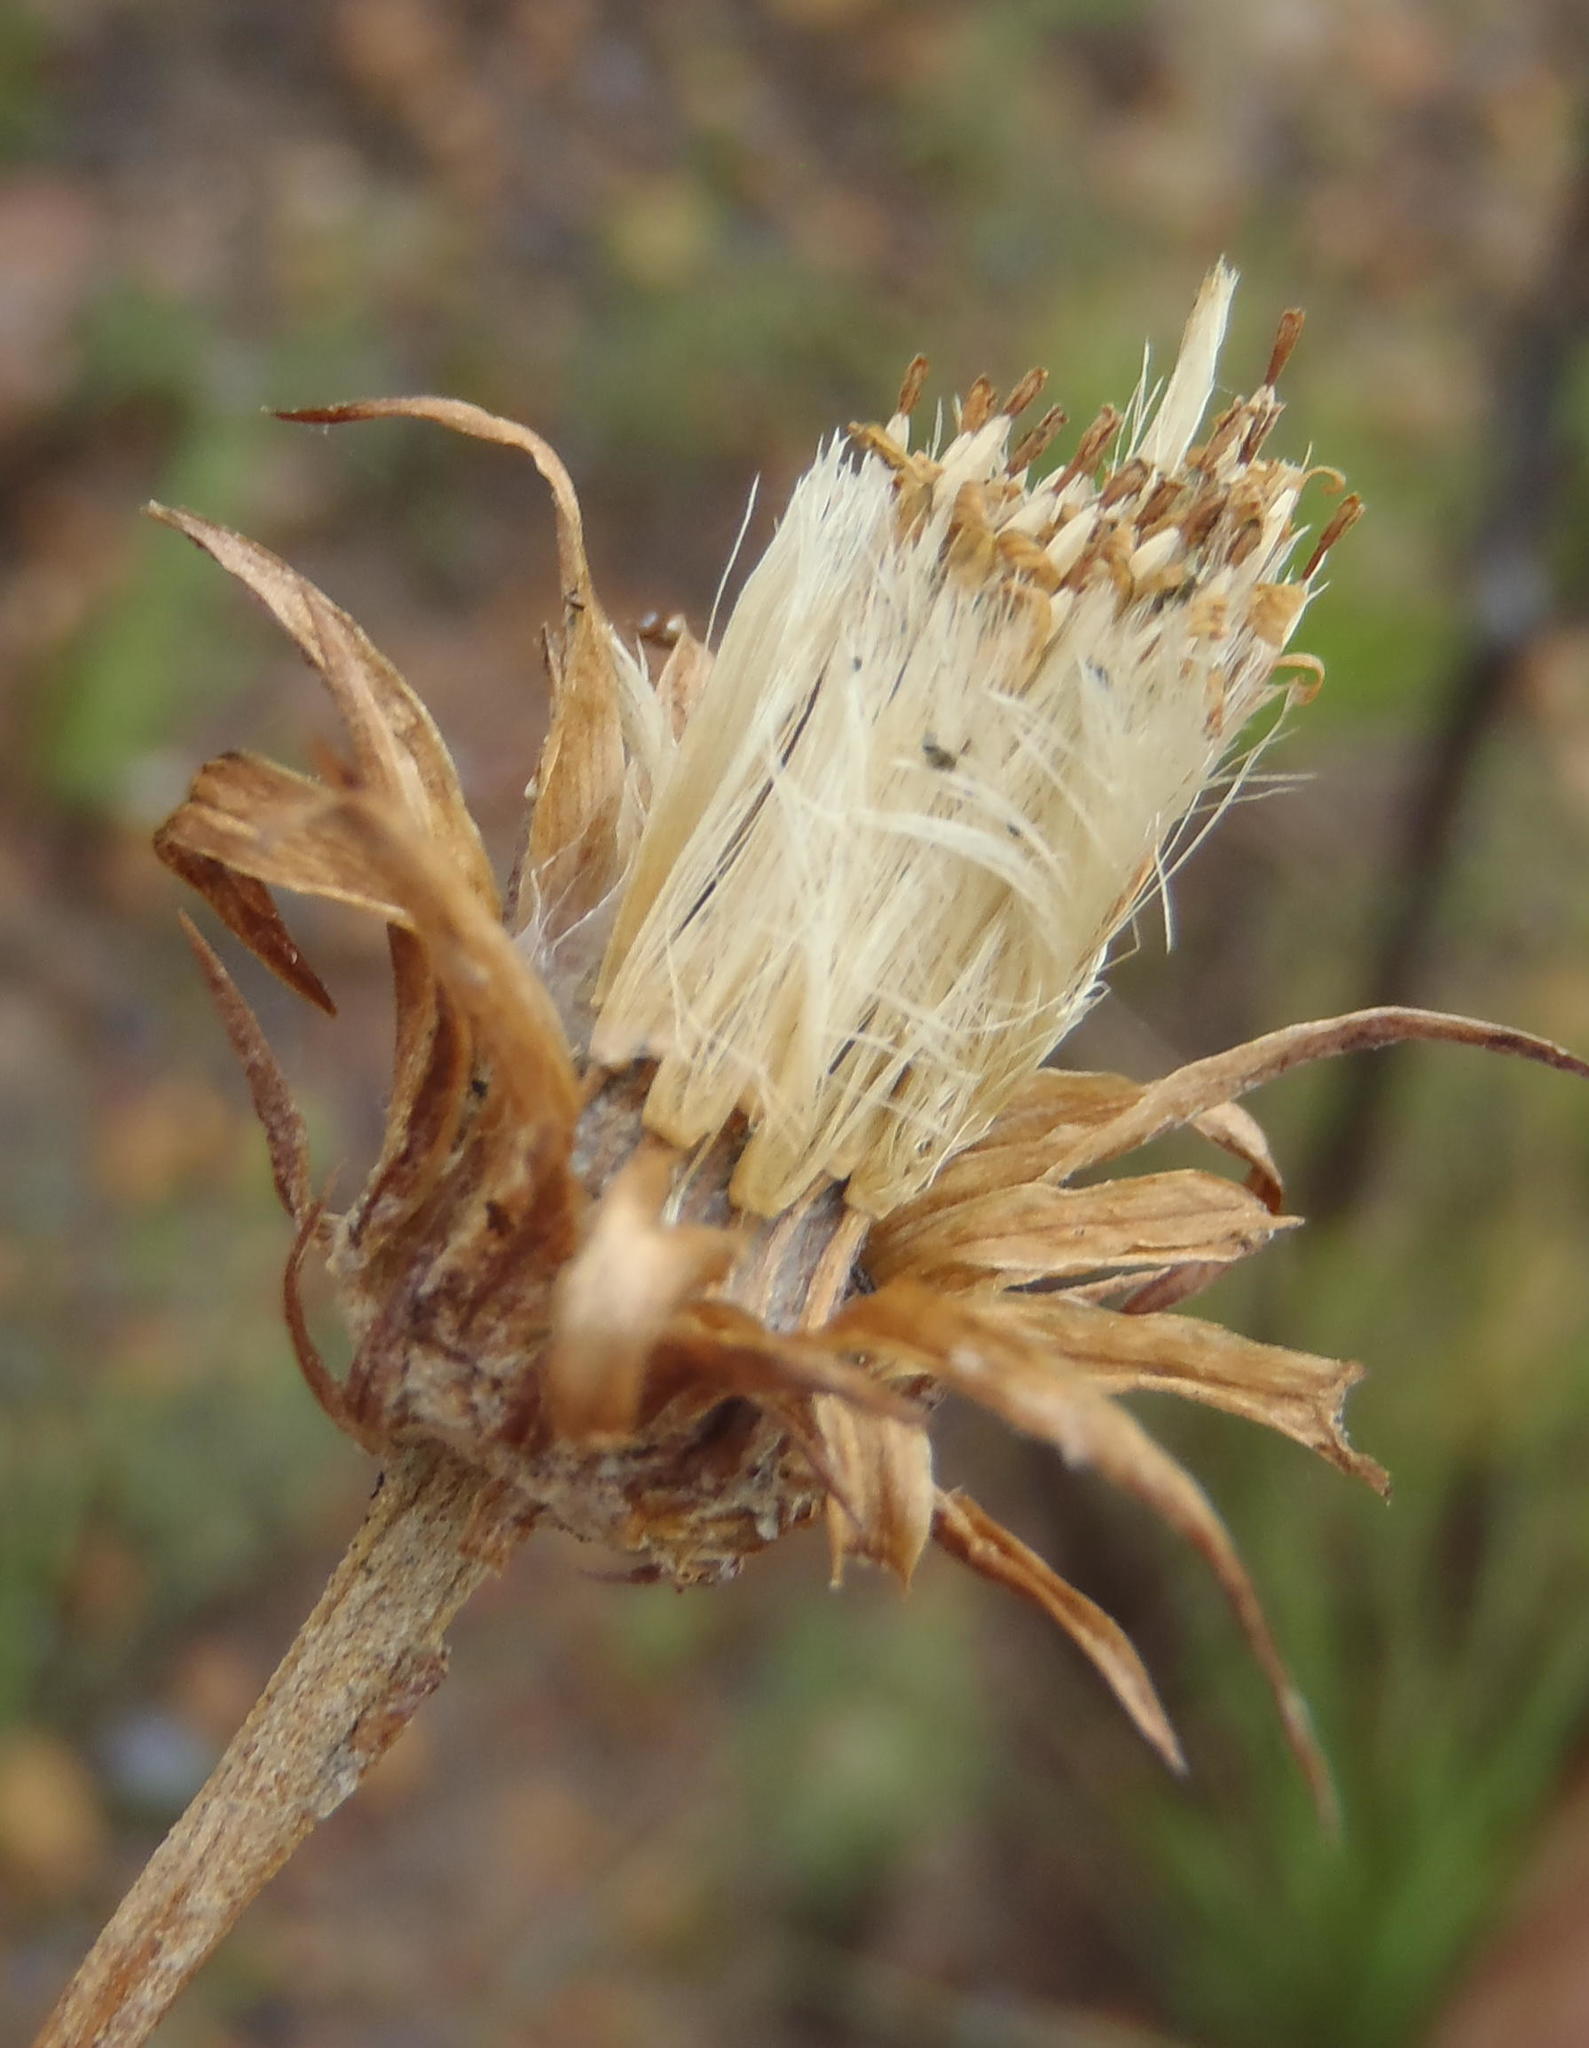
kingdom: Plantae
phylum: Tracheophyta
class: Magnoliopsida
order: Asterales
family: Asteraceae
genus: Gerbera
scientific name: Gerbera serrata
